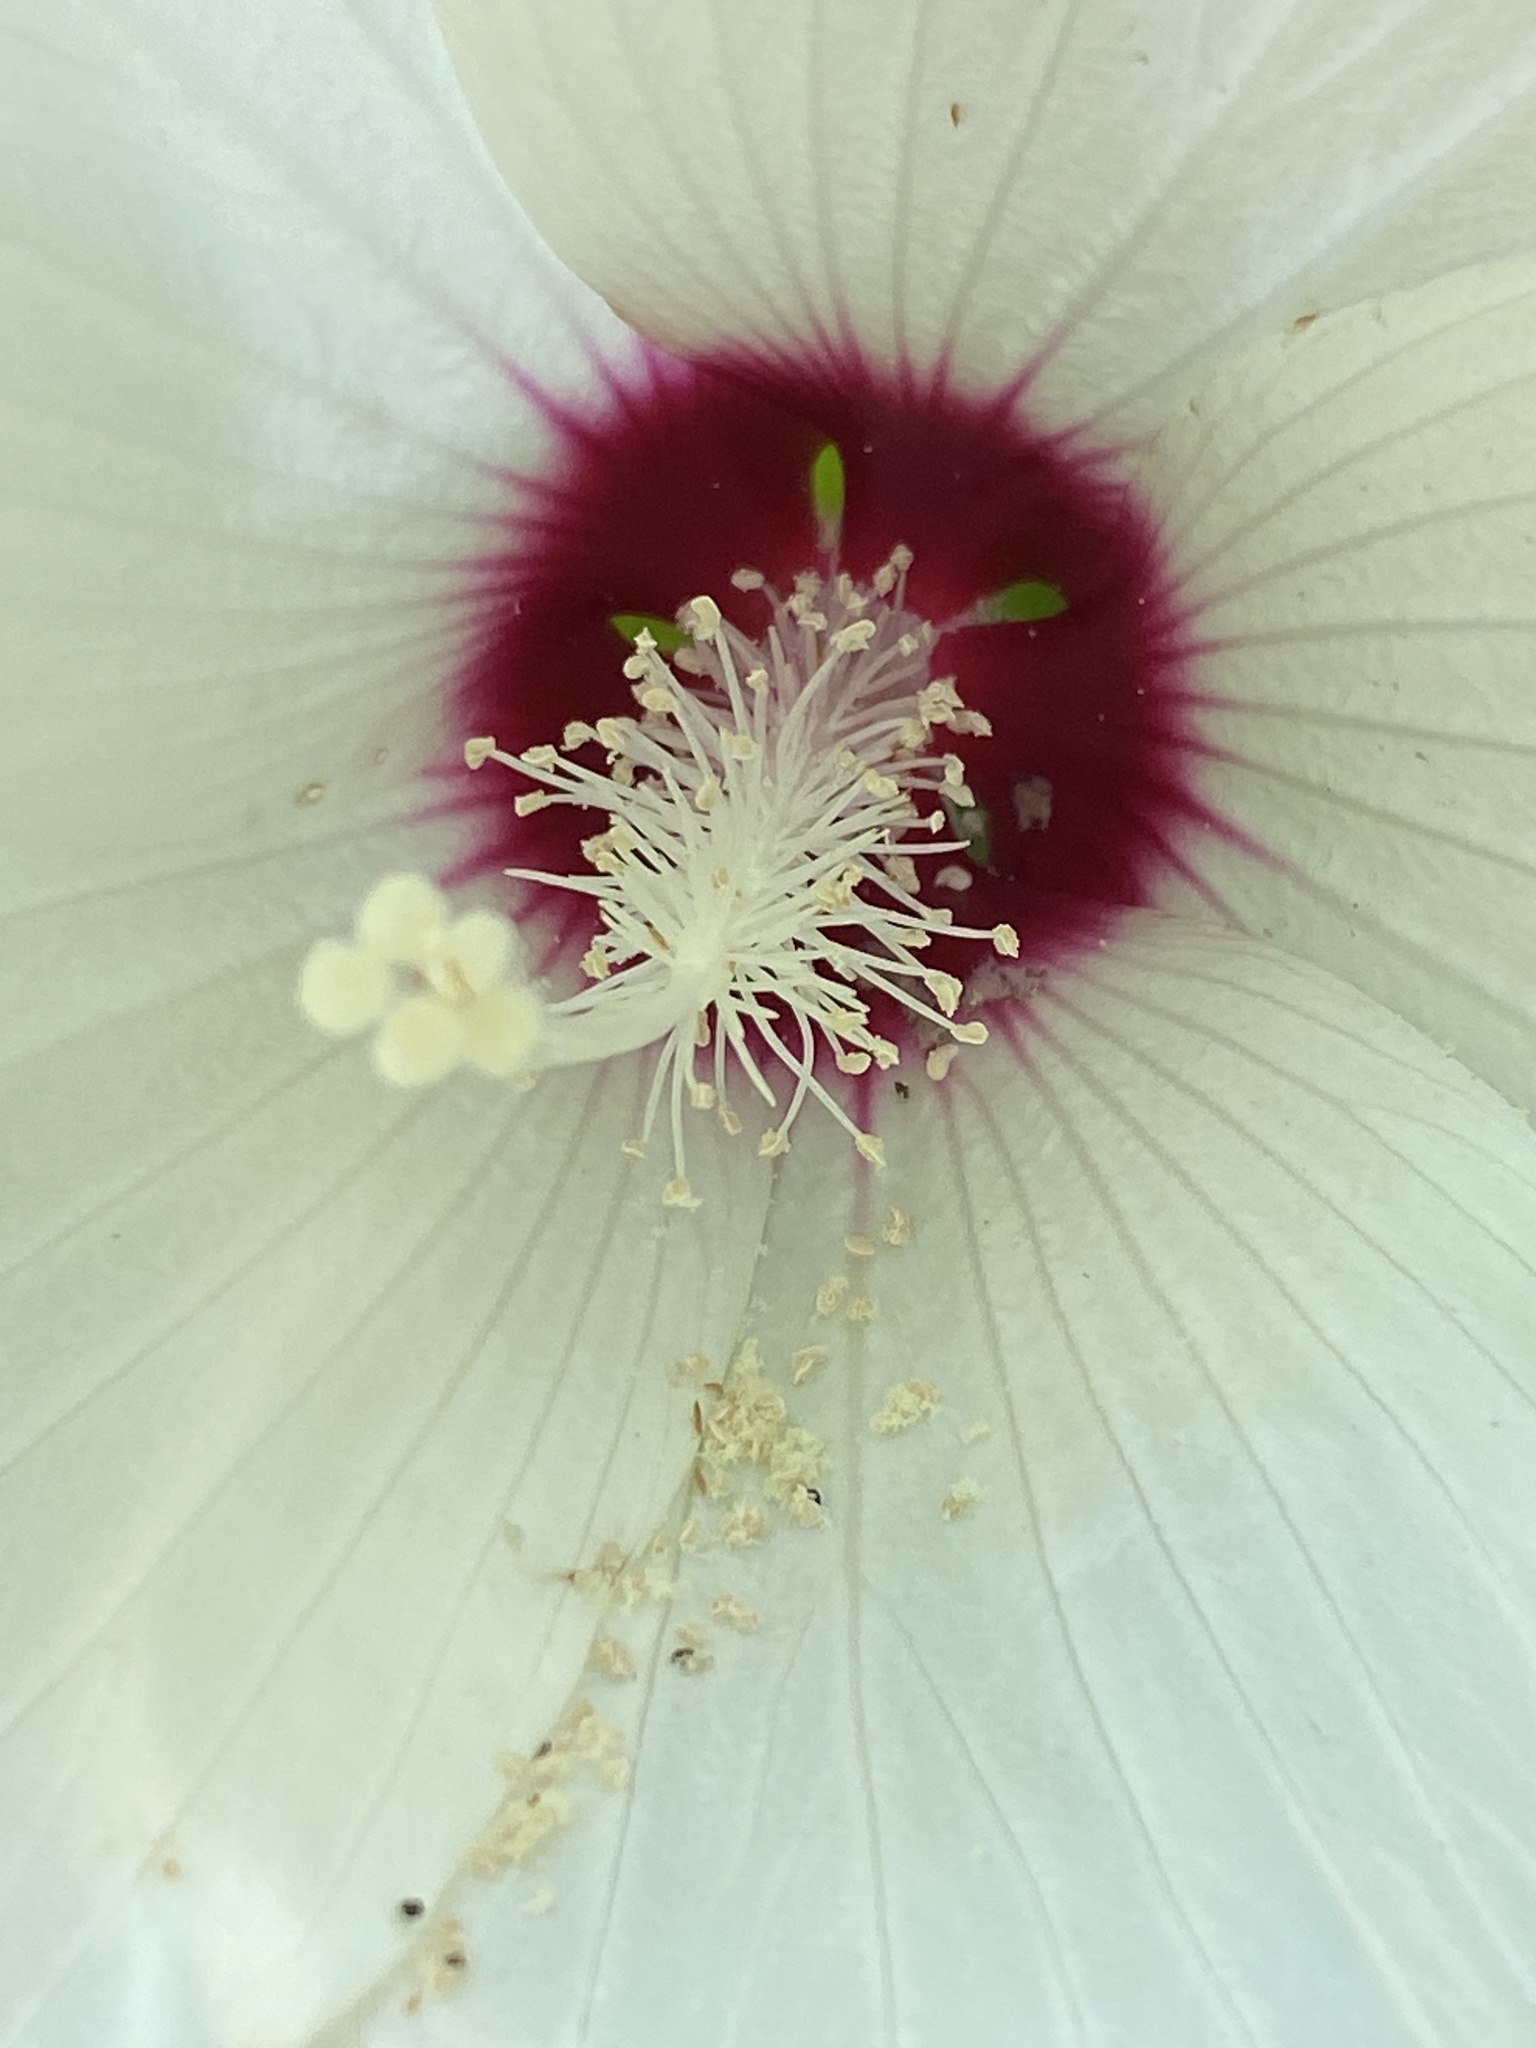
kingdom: Plantae
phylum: Tracheophyta
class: Magnoliopsida
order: Malvales
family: Malvaceae
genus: Hibiscus
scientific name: Hibiscus moscheutos
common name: Common rose-mallow
